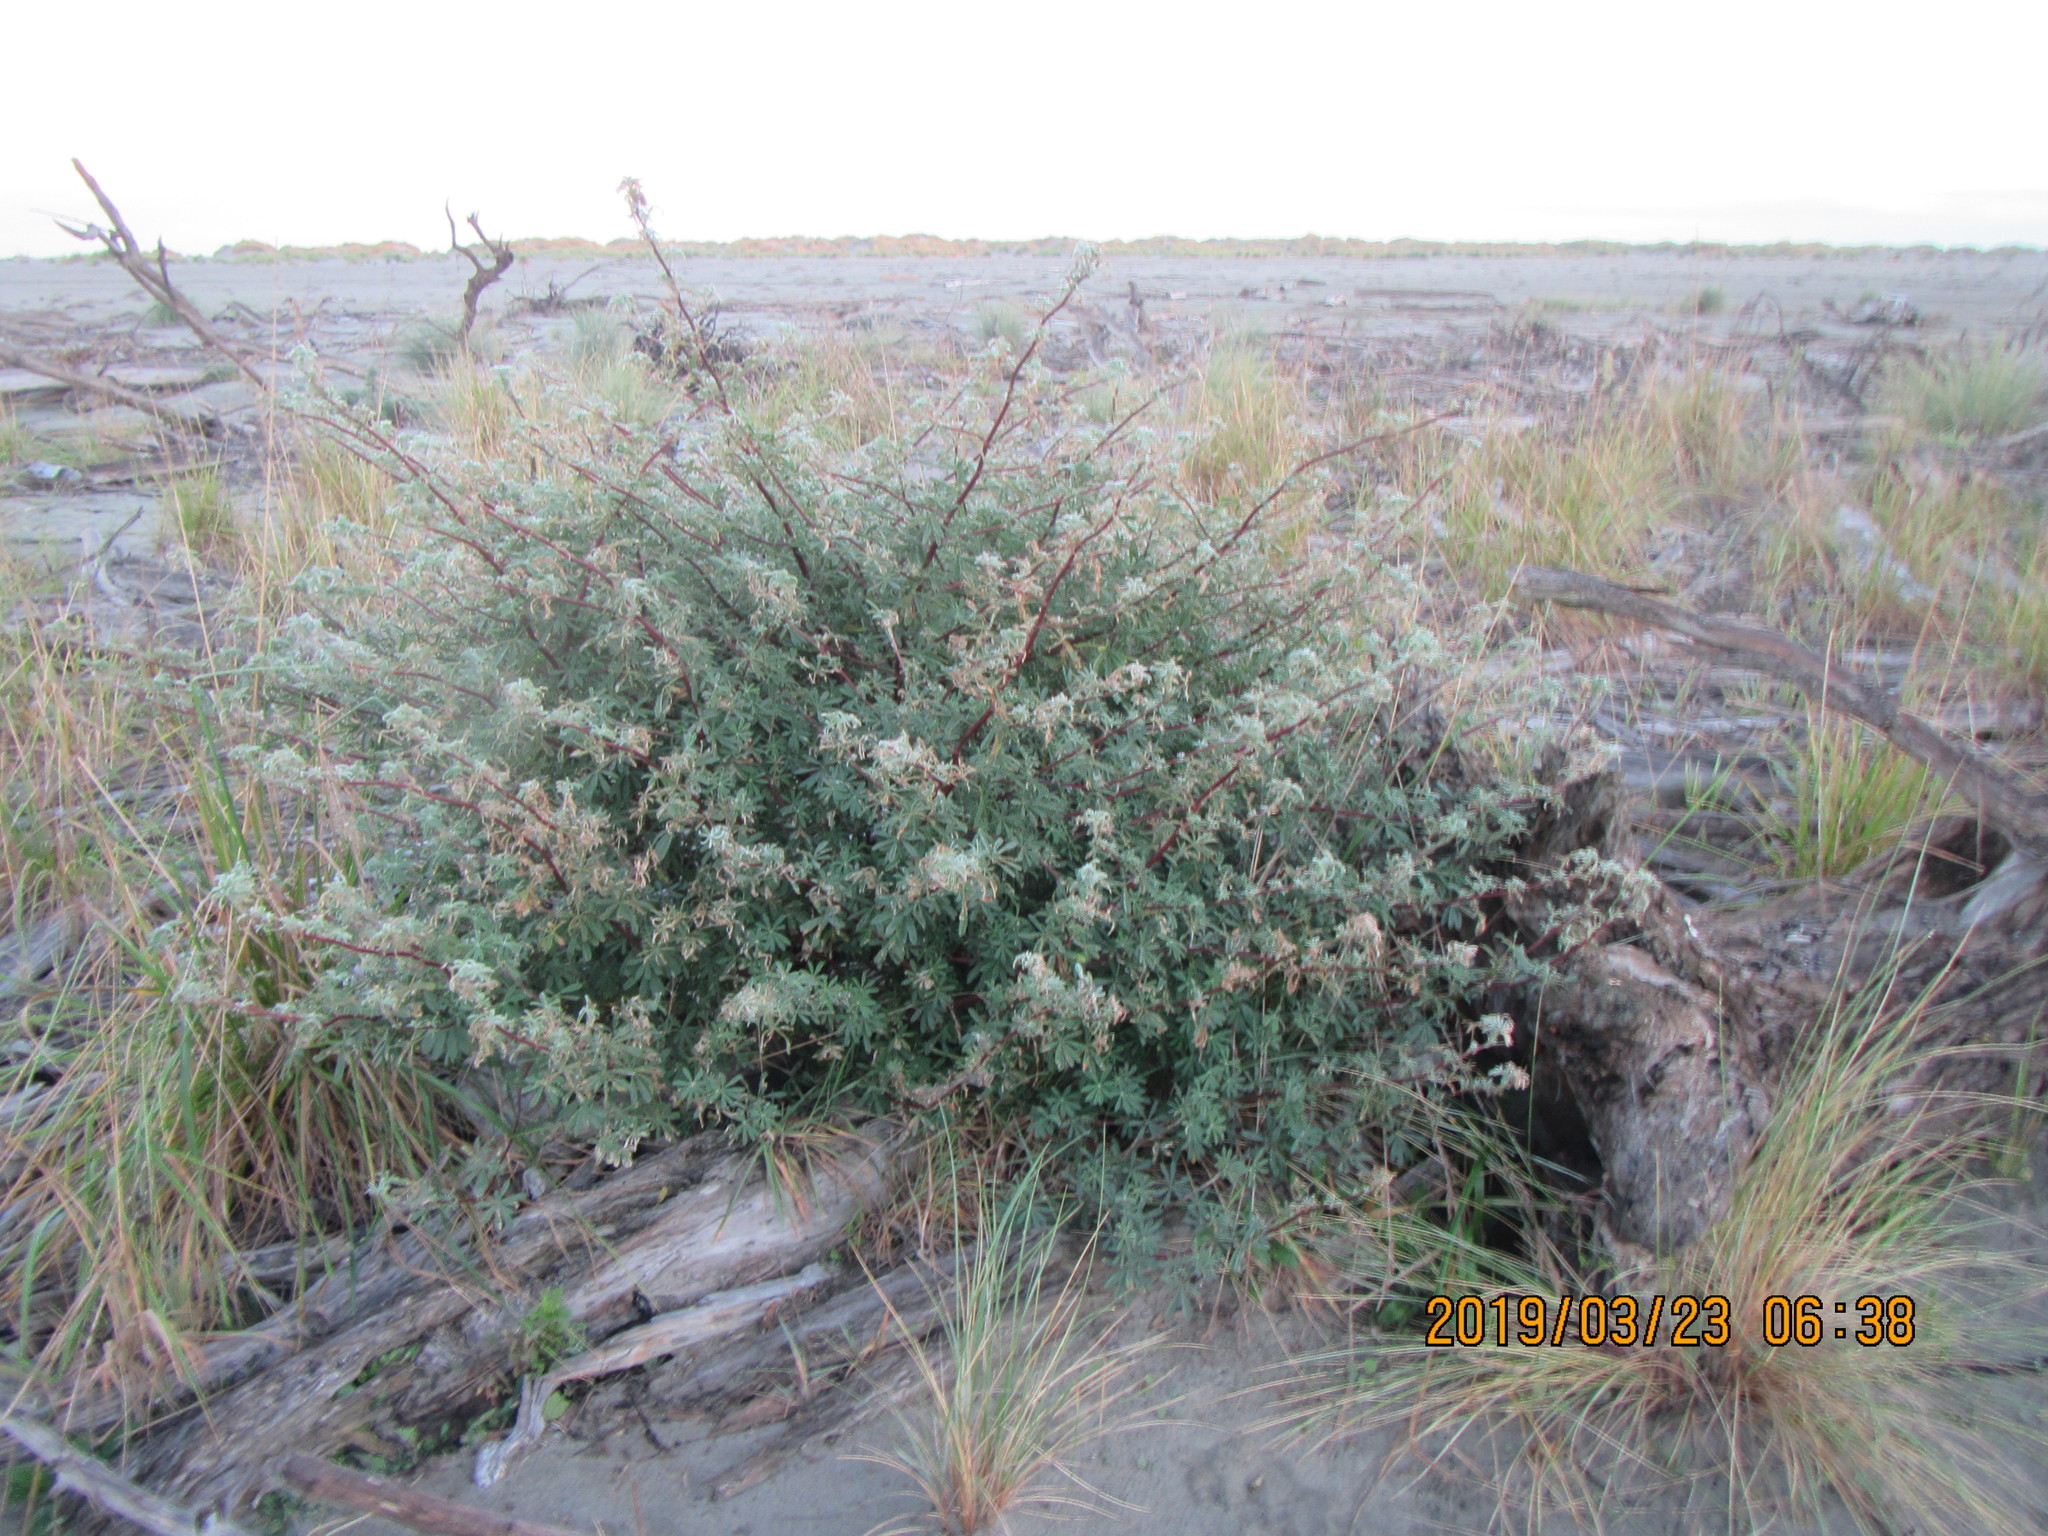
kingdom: Plantae
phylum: Tracheophyta
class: Magnoliopsida
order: Fabales
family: Fabaceae
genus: Lupinus
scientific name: Lupinus arboreus
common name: Yellow bush lupine
